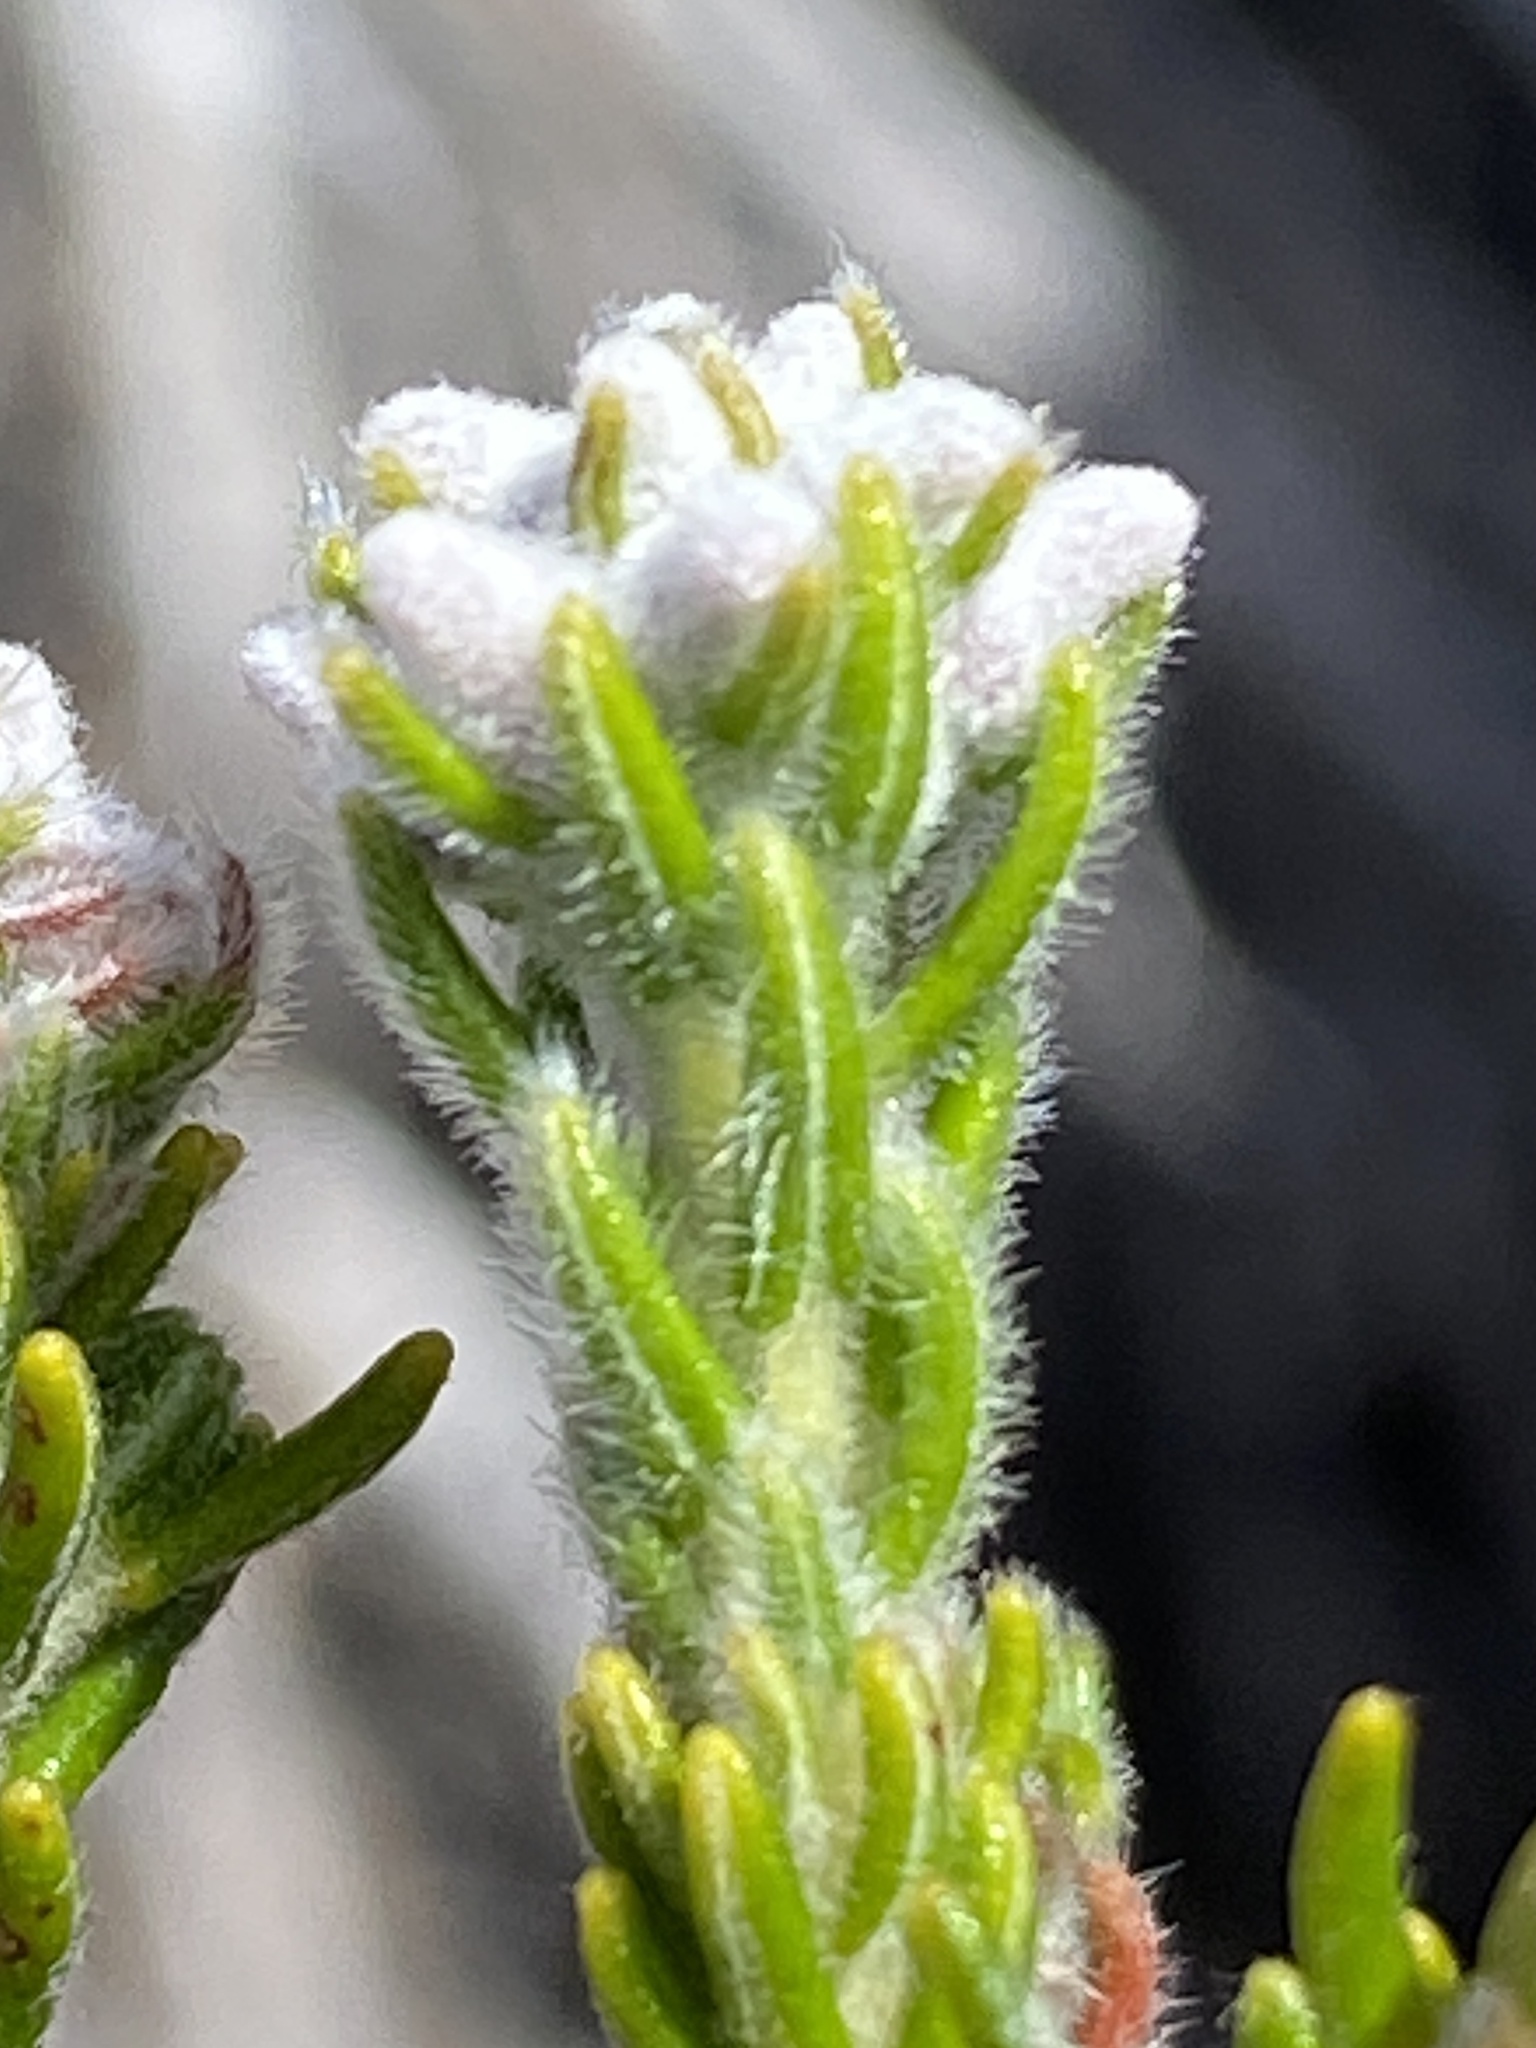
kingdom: Plantae
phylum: Tracheophyta
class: Magnoliopsida
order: Rosales
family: Rhamnaceae
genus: Phylica
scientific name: Phylica intrusa
